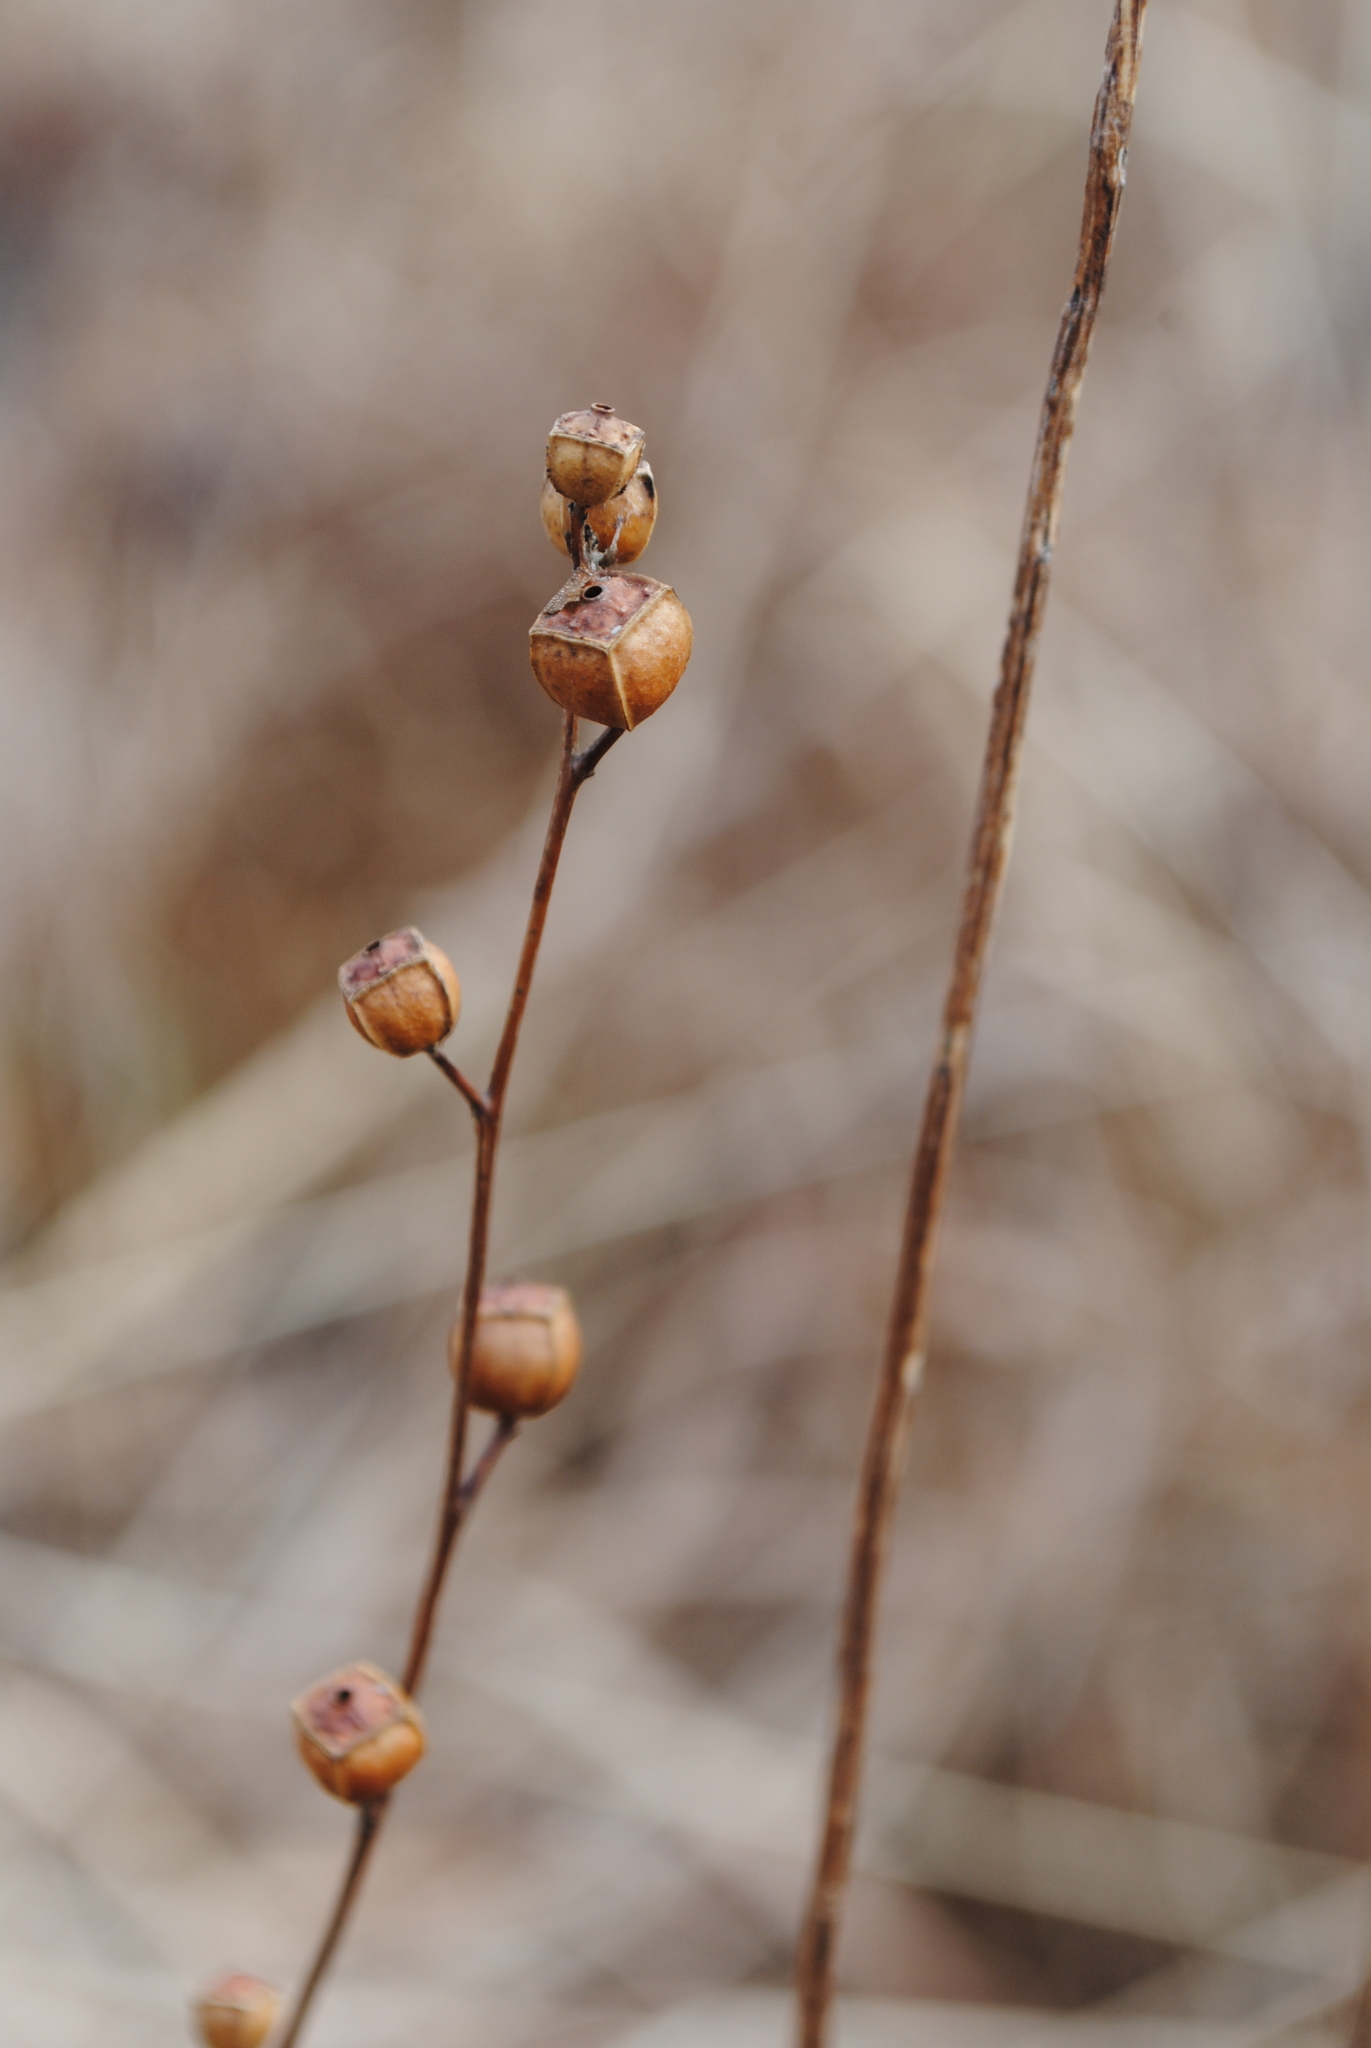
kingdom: Plantae
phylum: Tracheophyta
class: Magnoliopsida
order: Myrtales
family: Onagraceae
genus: Ludwigia
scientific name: Ludwigia alternifolia
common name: Rattlebox
